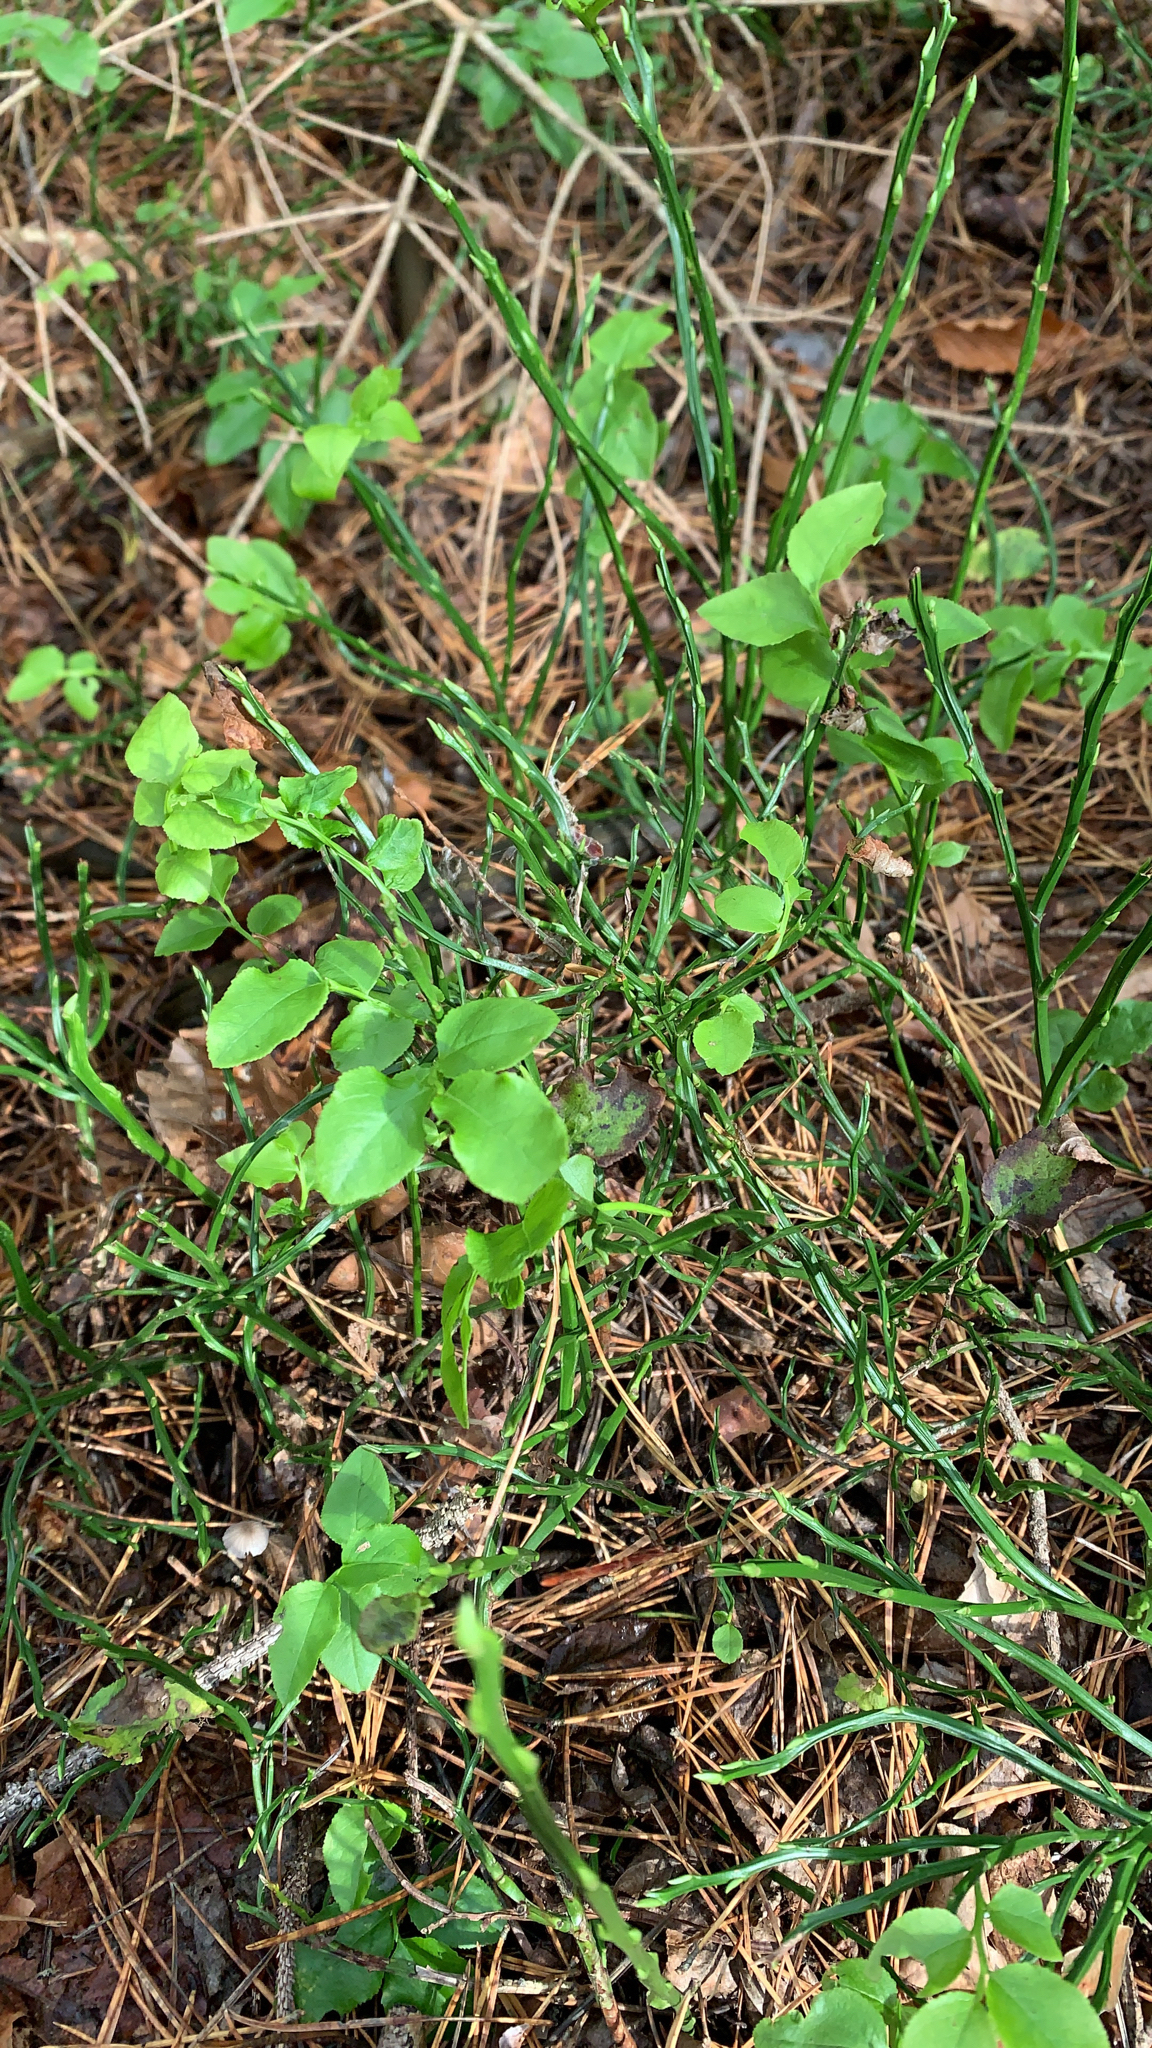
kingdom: Plantae
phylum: Tracheophyta
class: Magnoliopsida
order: Ericales
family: Ericaceae
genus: Vaccinium
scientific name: Vaccinium myrtillus
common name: Bilberry
